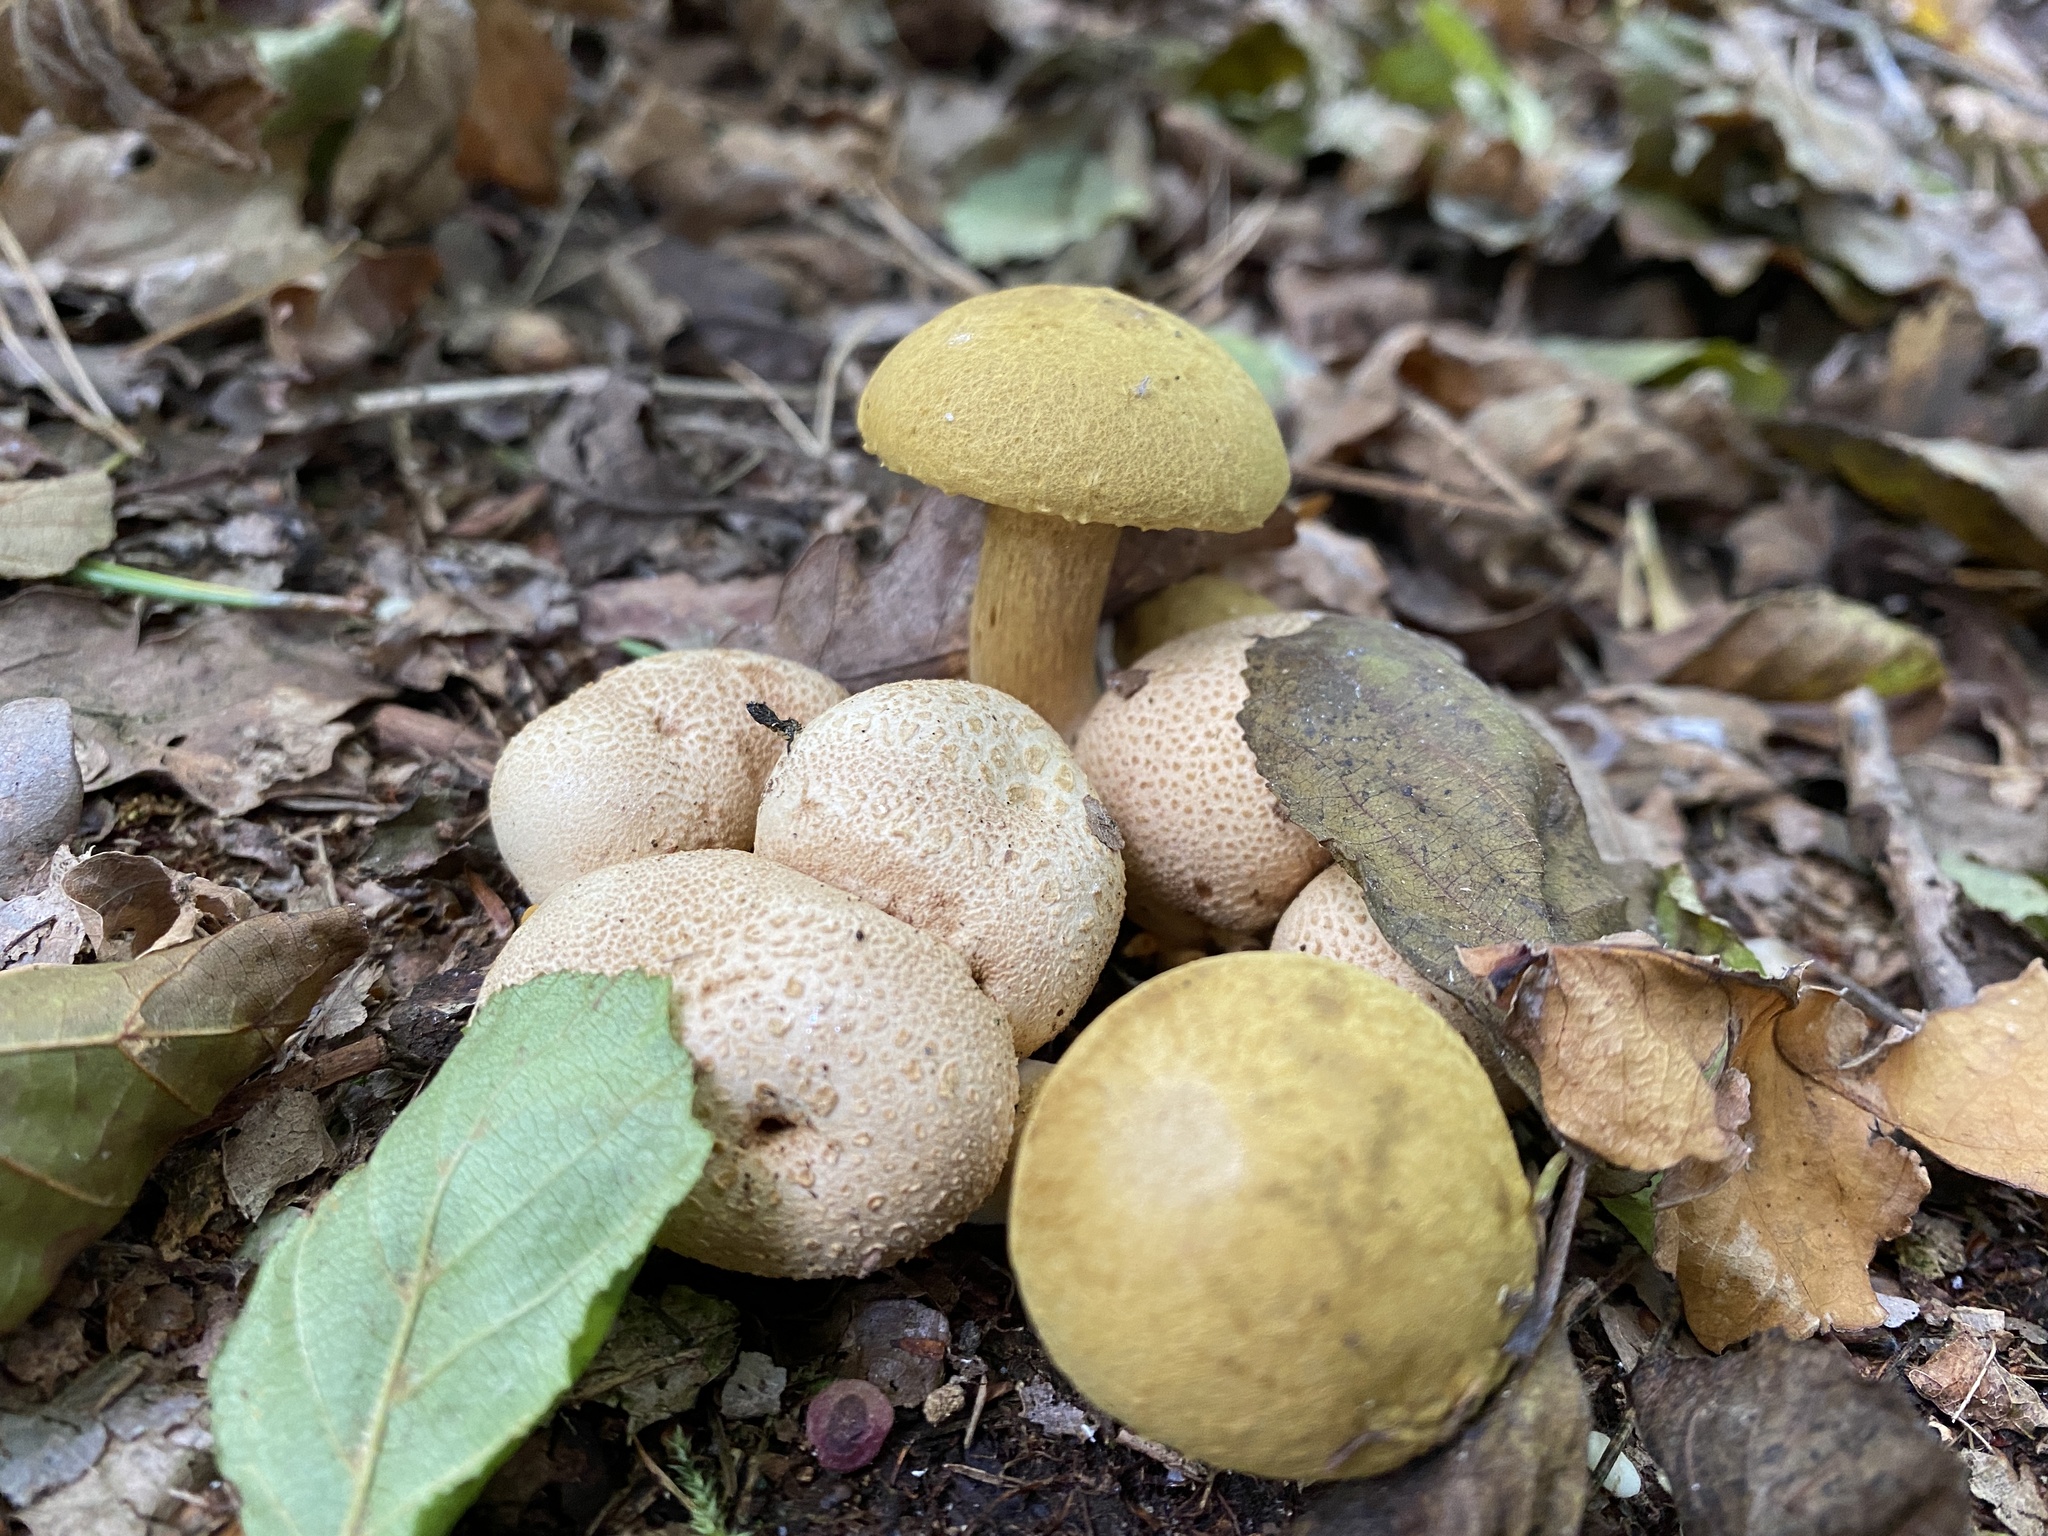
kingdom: Fungi
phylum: Basidiomycota
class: Agaricomycetes
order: Boletales
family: Boletaceae
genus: Pseudoboletus
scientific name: Pseudoboletus parasiticus
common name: Parasitic bolete
